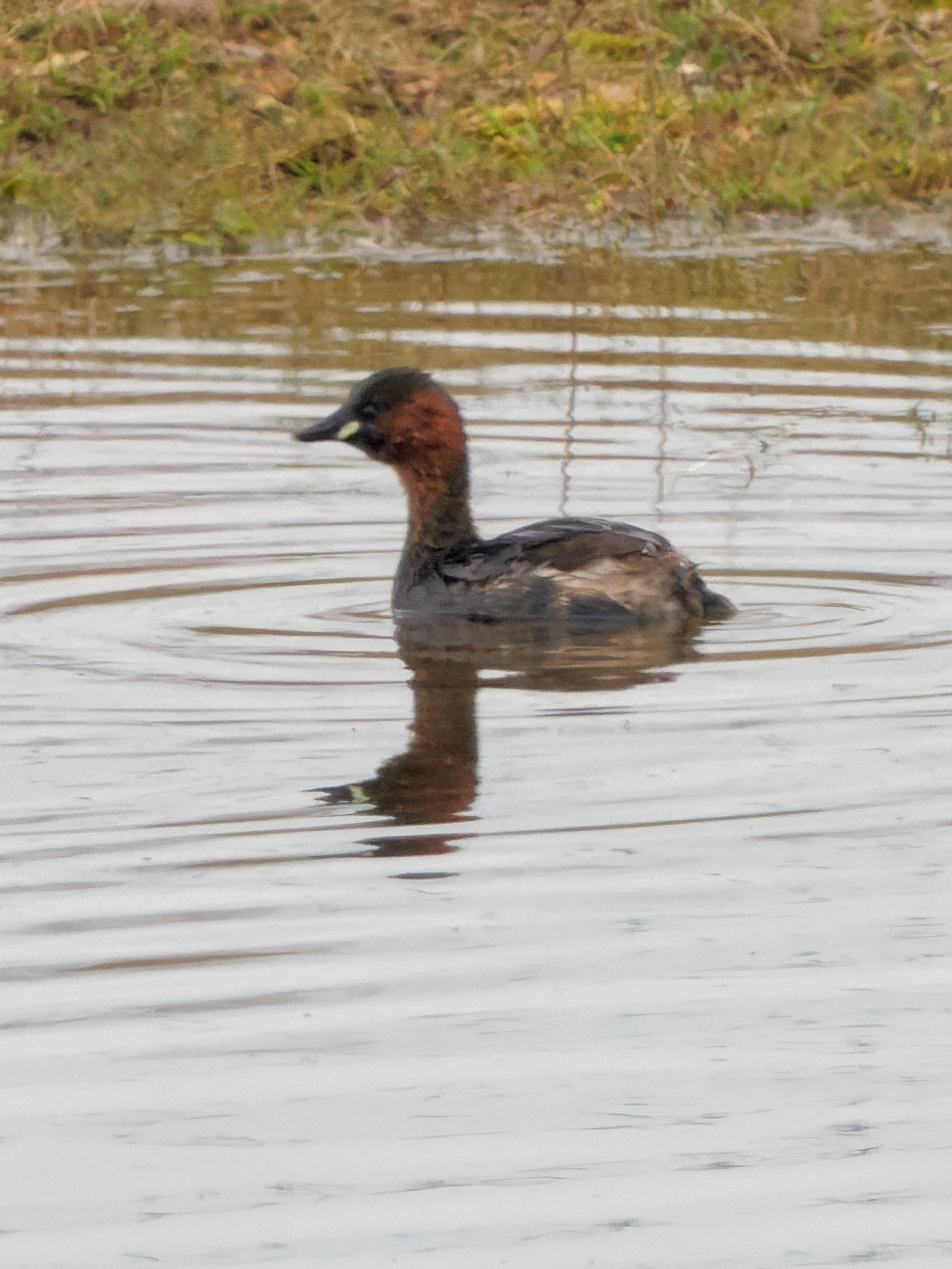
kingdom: Animalia
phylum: Chordata
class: Aves
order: Podicipediformes
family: Podicipedidae
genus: Tachybaptus
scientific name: Tachybaptus ruficollis
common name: Little grebe
